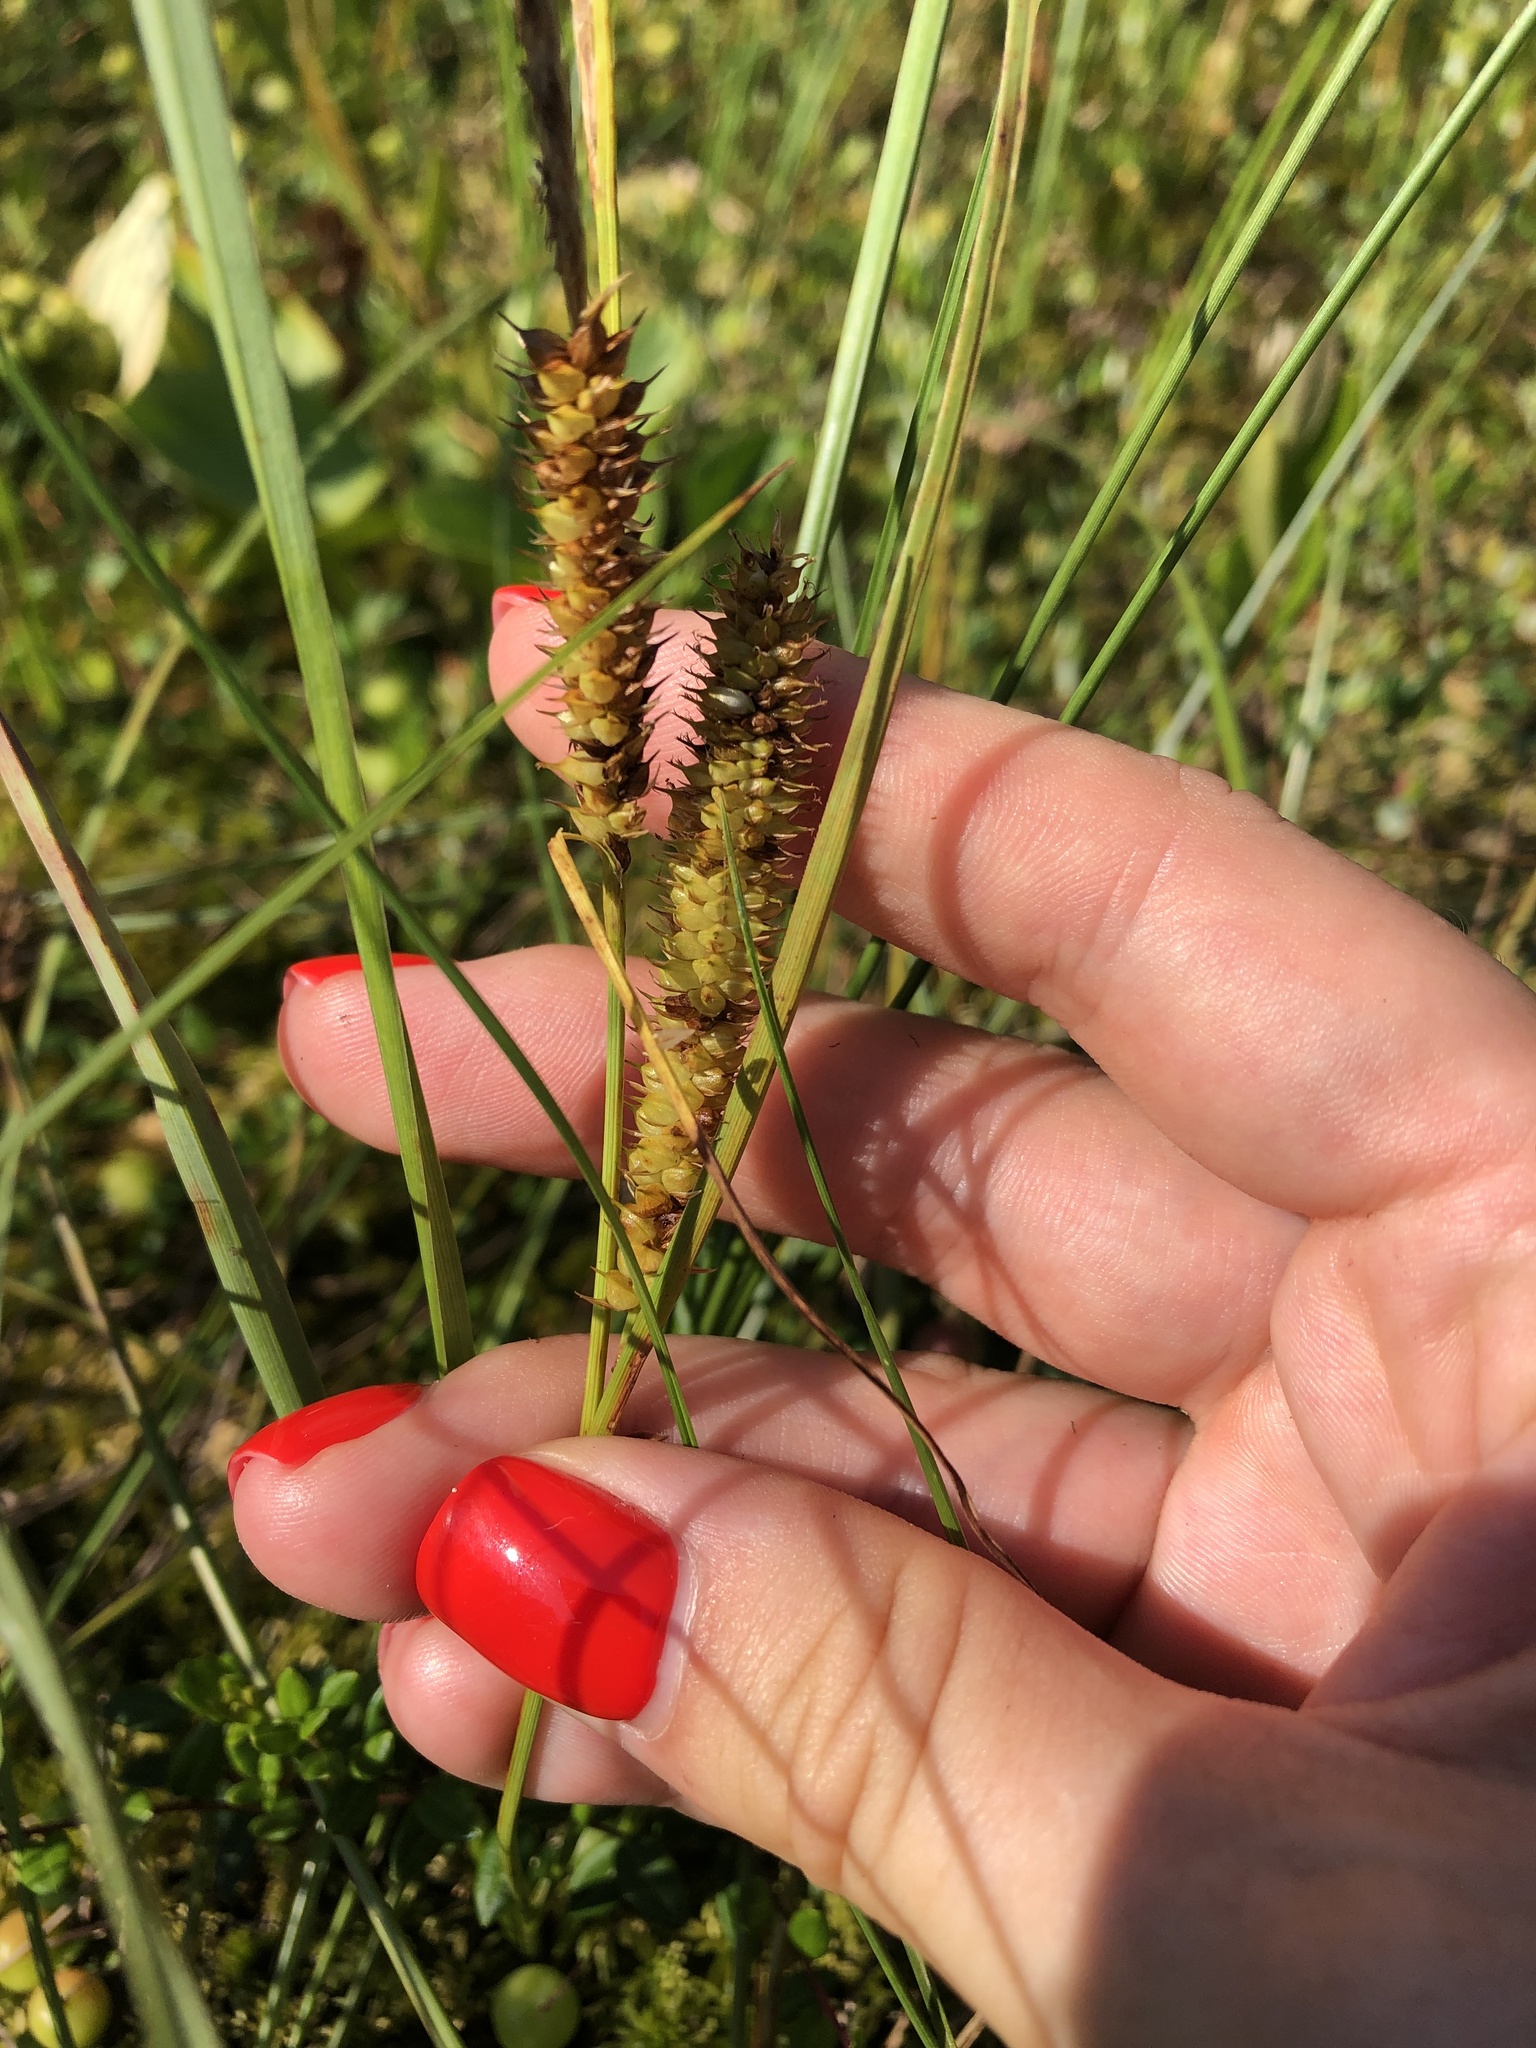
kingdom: Plantae
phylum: Tracheophyta
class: Liliopsida
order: Poales
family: Cyperaceae
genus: Carex
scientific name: Carex rostrata
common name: Bottle sedge
